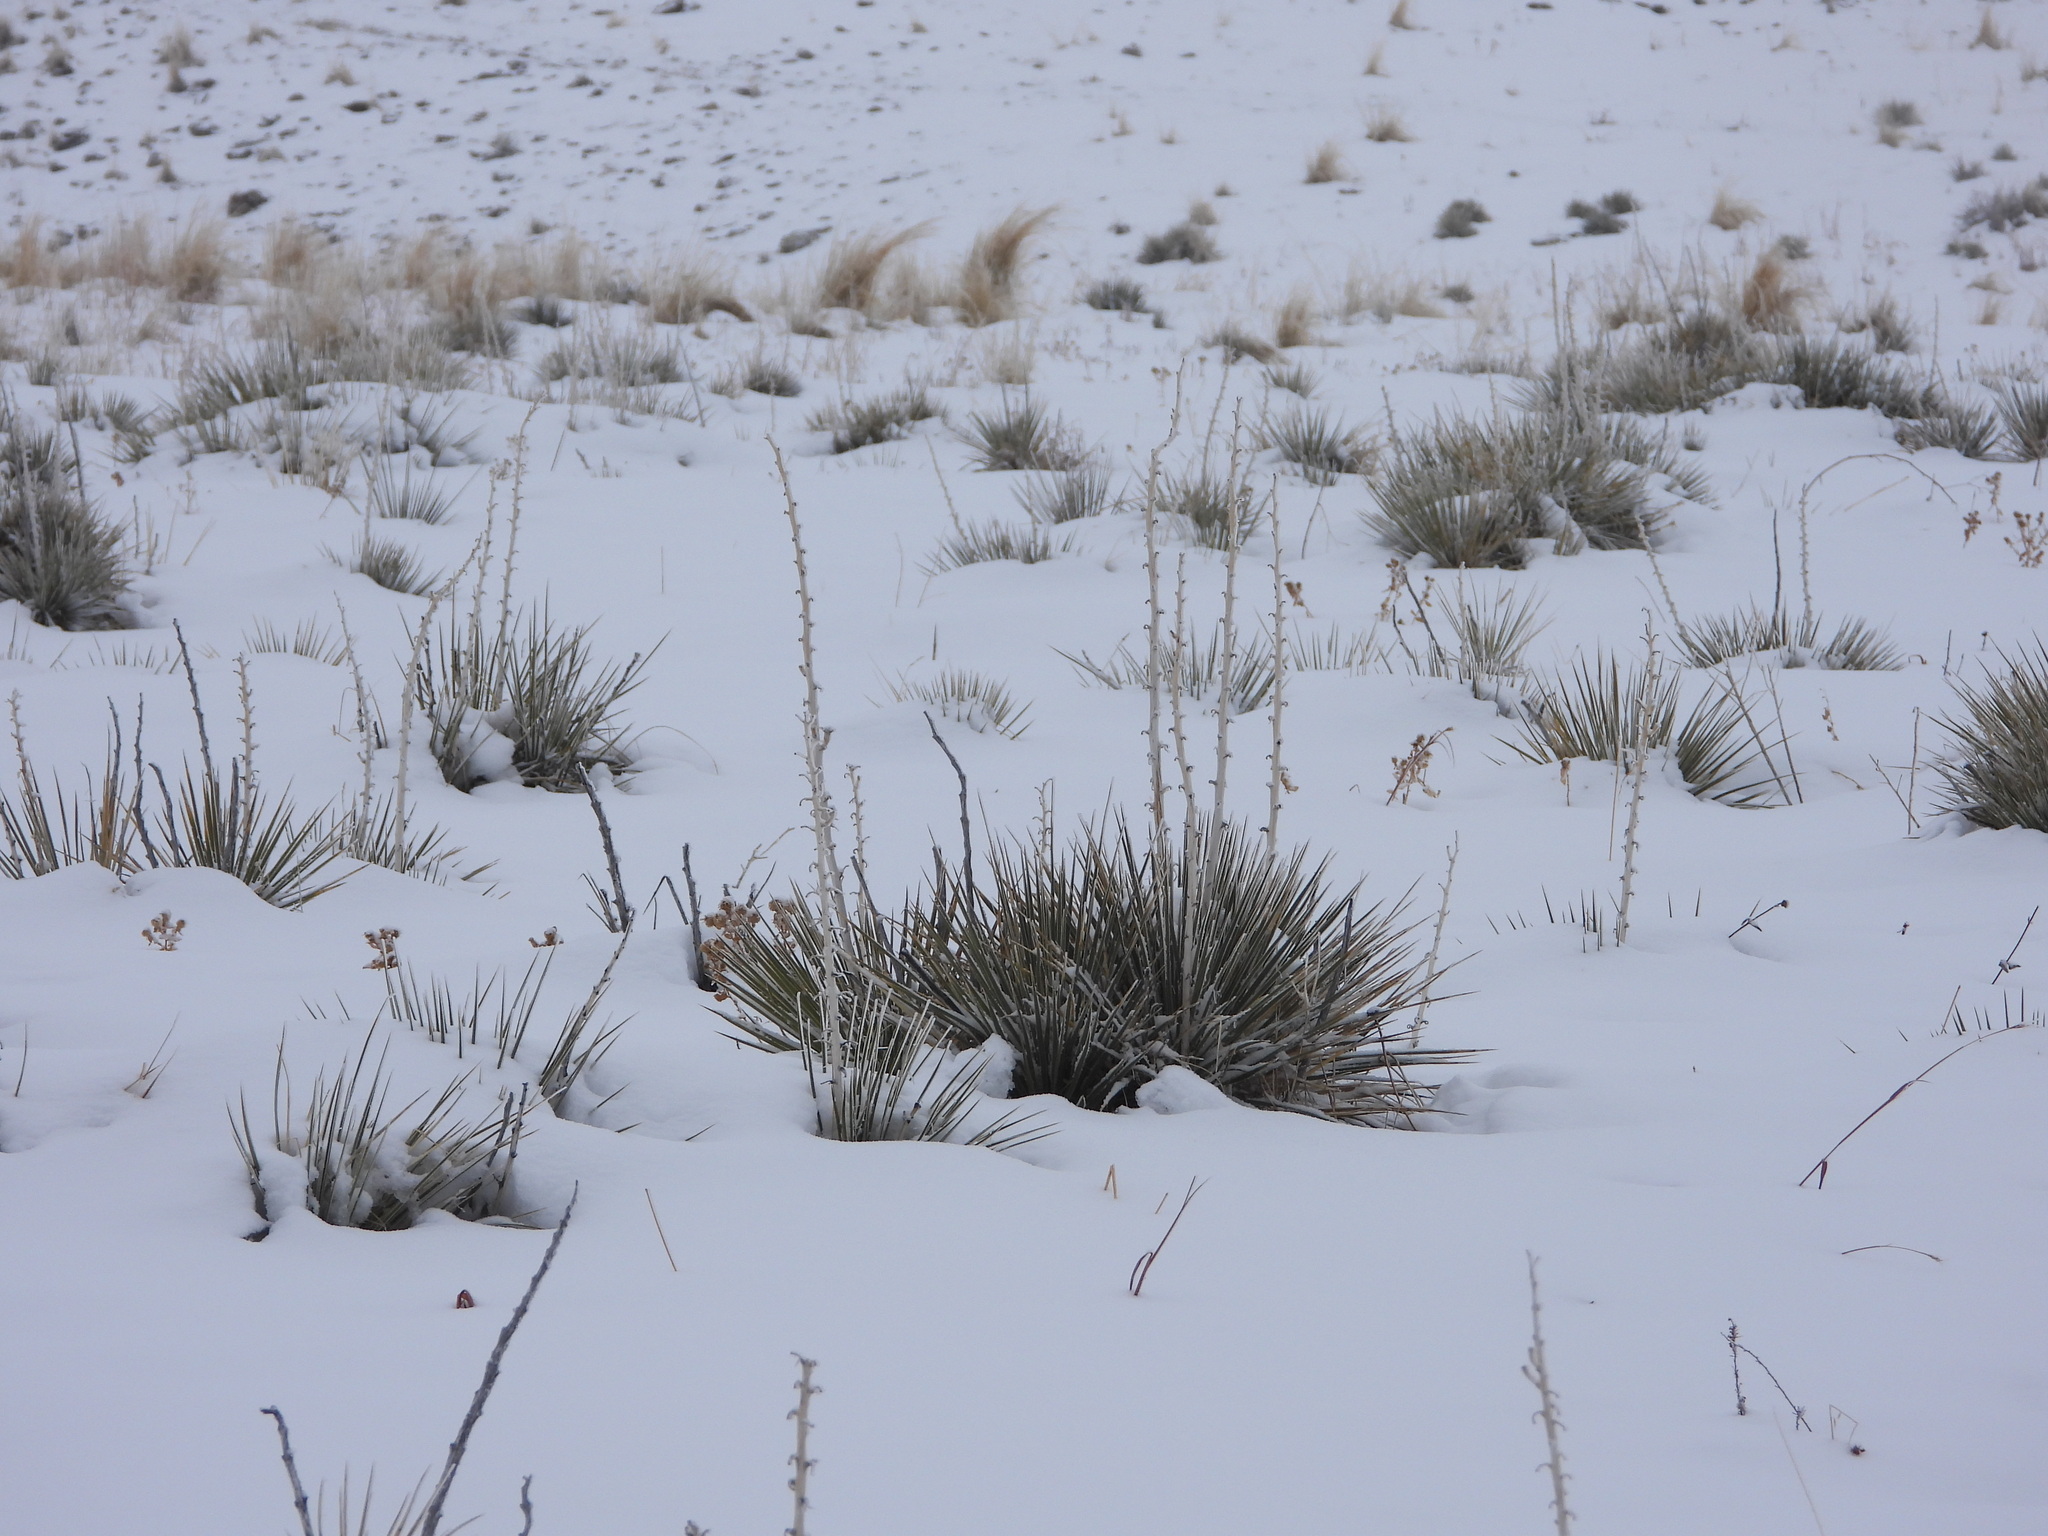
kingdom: Plantae
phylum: Tracheophyta
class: Liliopsida
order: Asparagales
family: Asparagaceae
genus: Yucca
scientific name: Yucca glauca
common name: Great plains yucca
